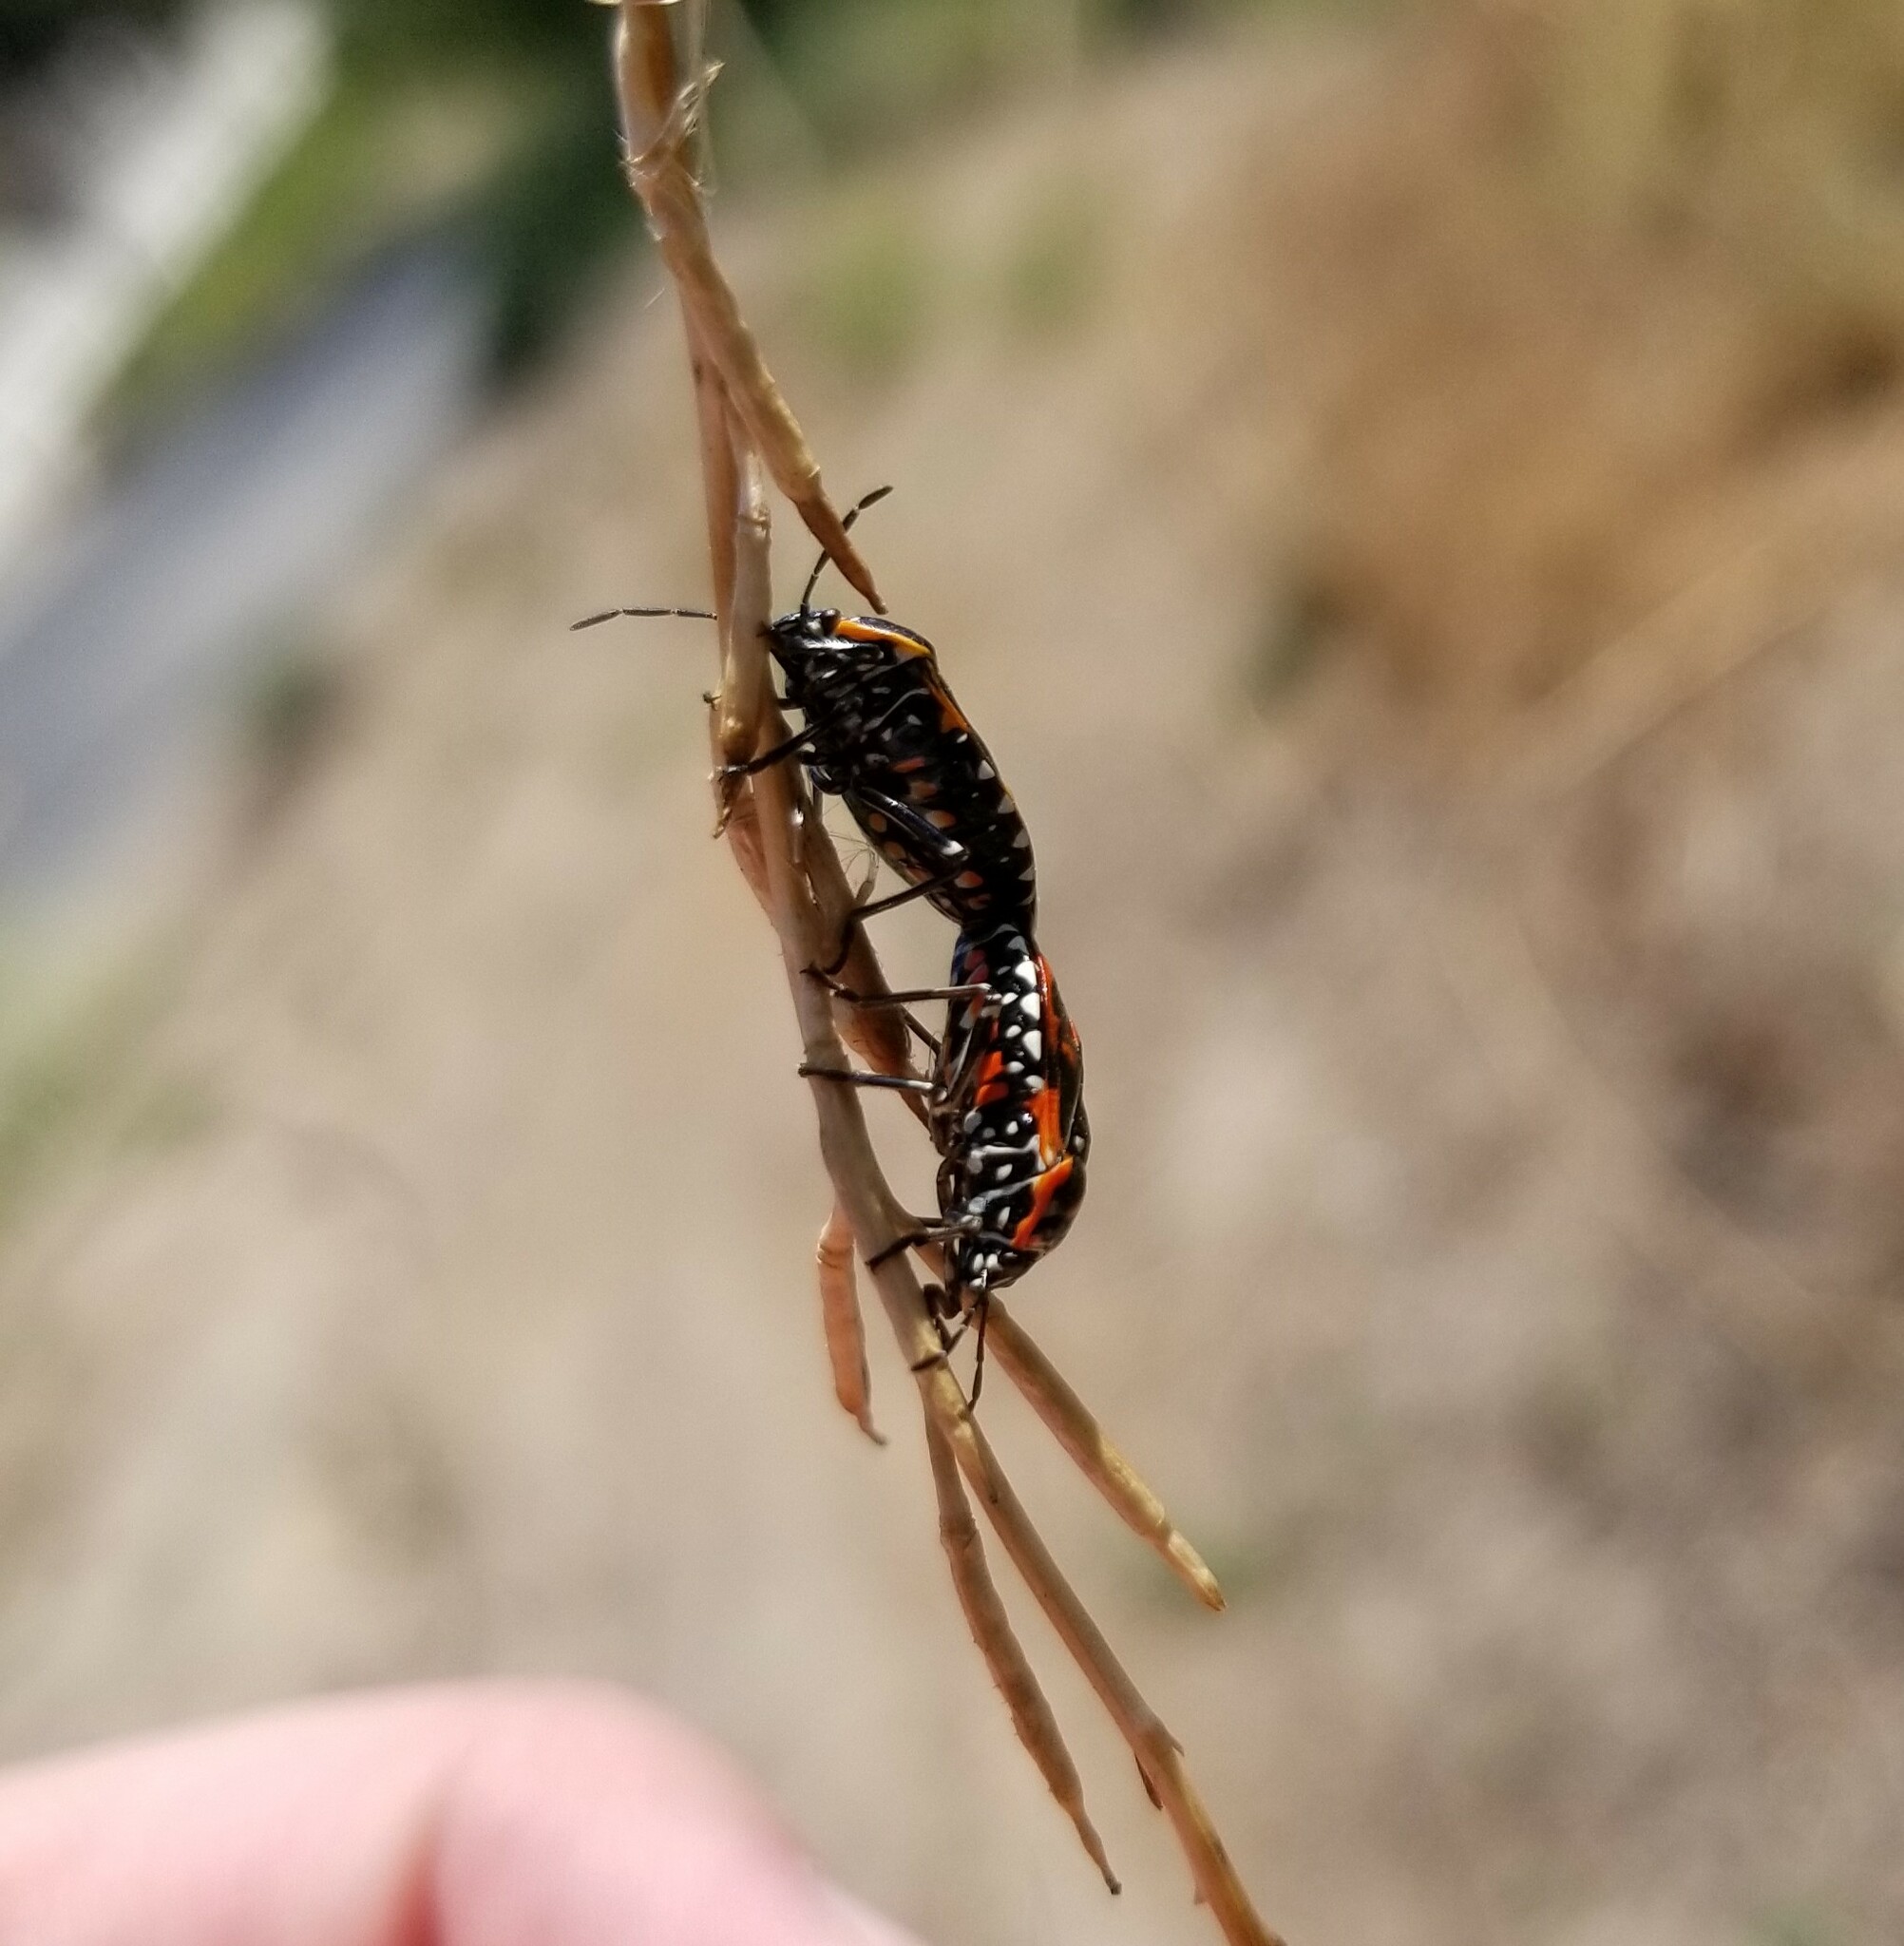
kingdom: Animalia
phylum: Arthropoda
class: Insecta
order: Hemiptera
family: Pentatomidae
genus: Murgantia
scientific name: Murgantia histrionica
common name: Harlequin bug
